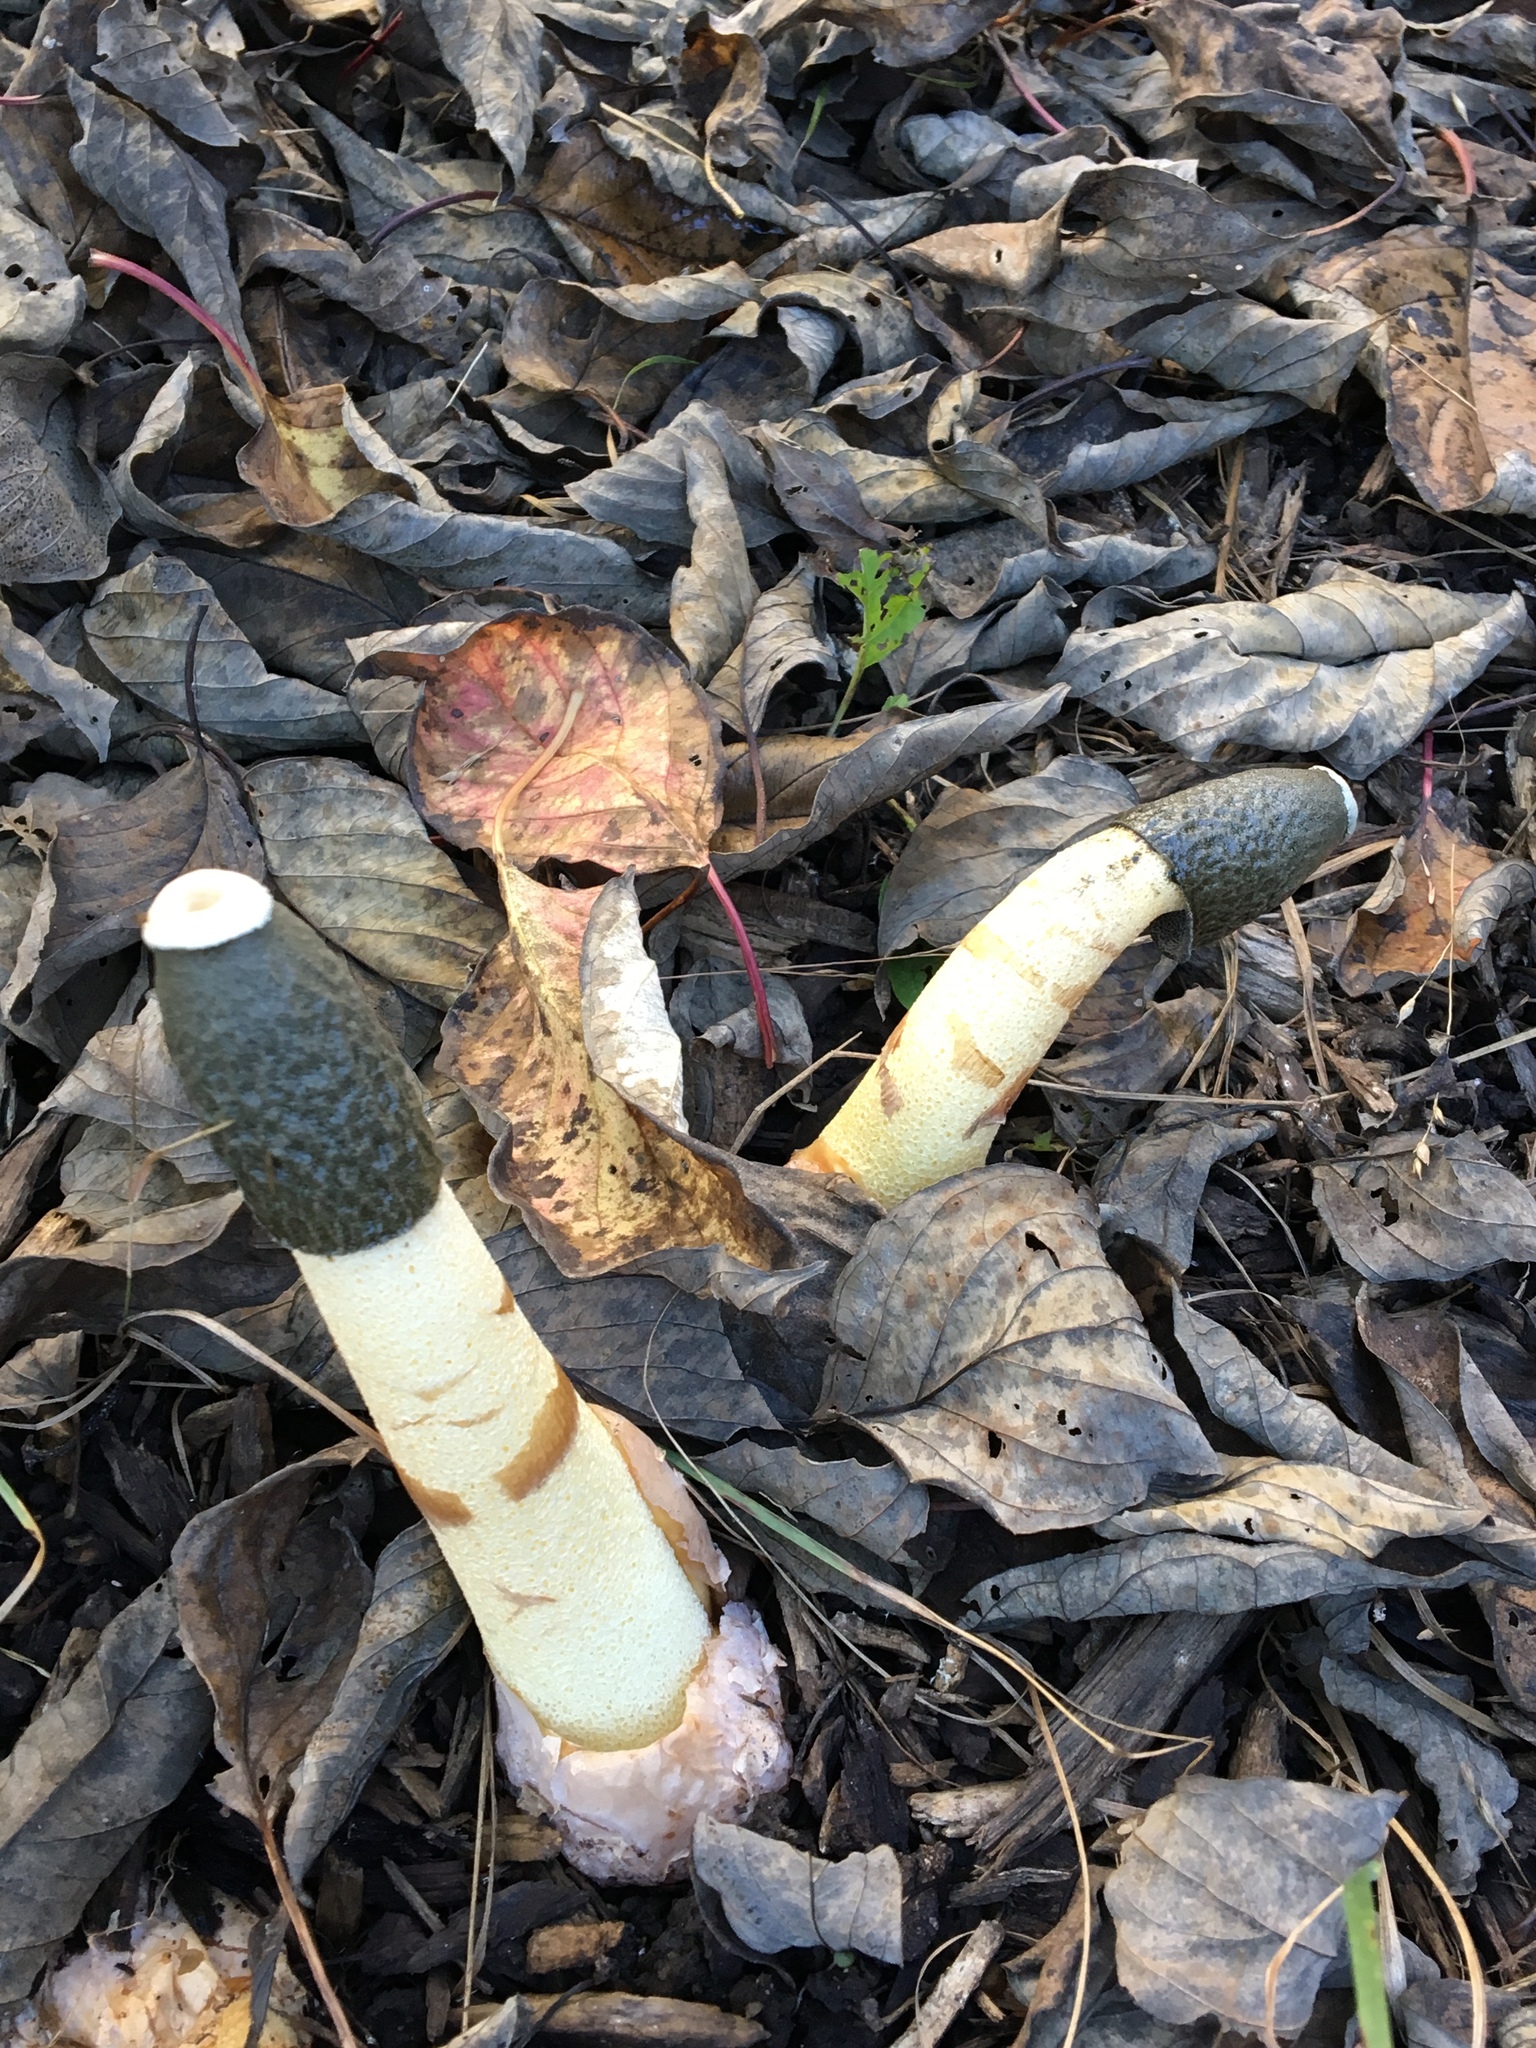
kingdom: Fungi
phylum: Basidiomycota
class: Agaricomycetes
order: Phallales
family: Phallaceae
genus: Phallus
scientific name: Phallus ravenelii
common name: Ravenel's stinkhorn
